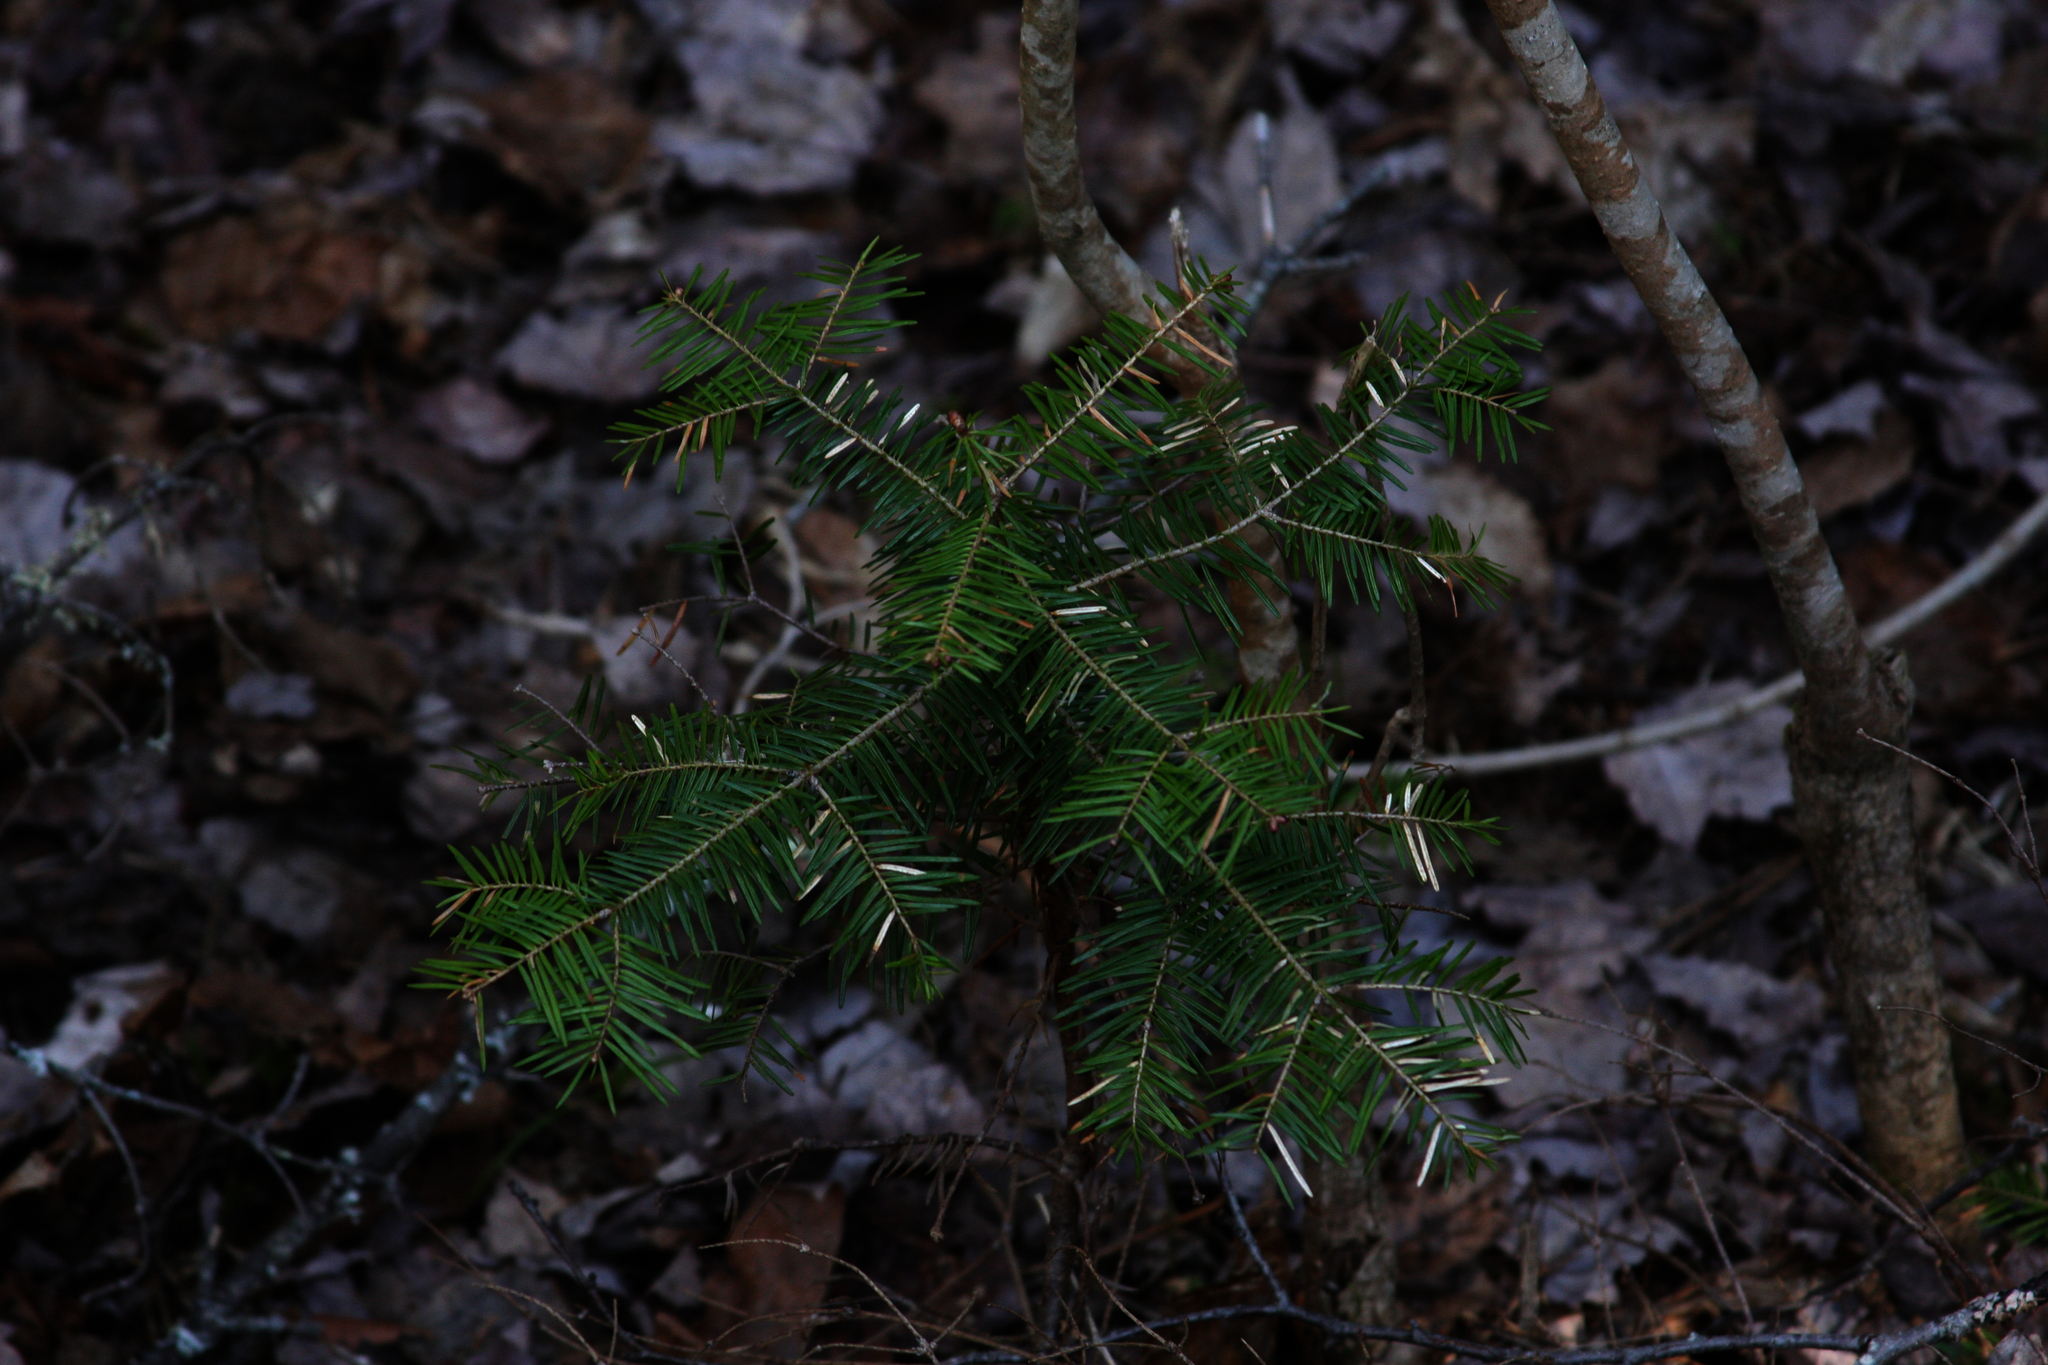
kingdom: Plantae
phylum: Tracheophyta
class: Pinopsida
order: Pinales
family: Pinaceae
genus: Abies
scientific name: Abies balsamea
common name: Balsam fir
